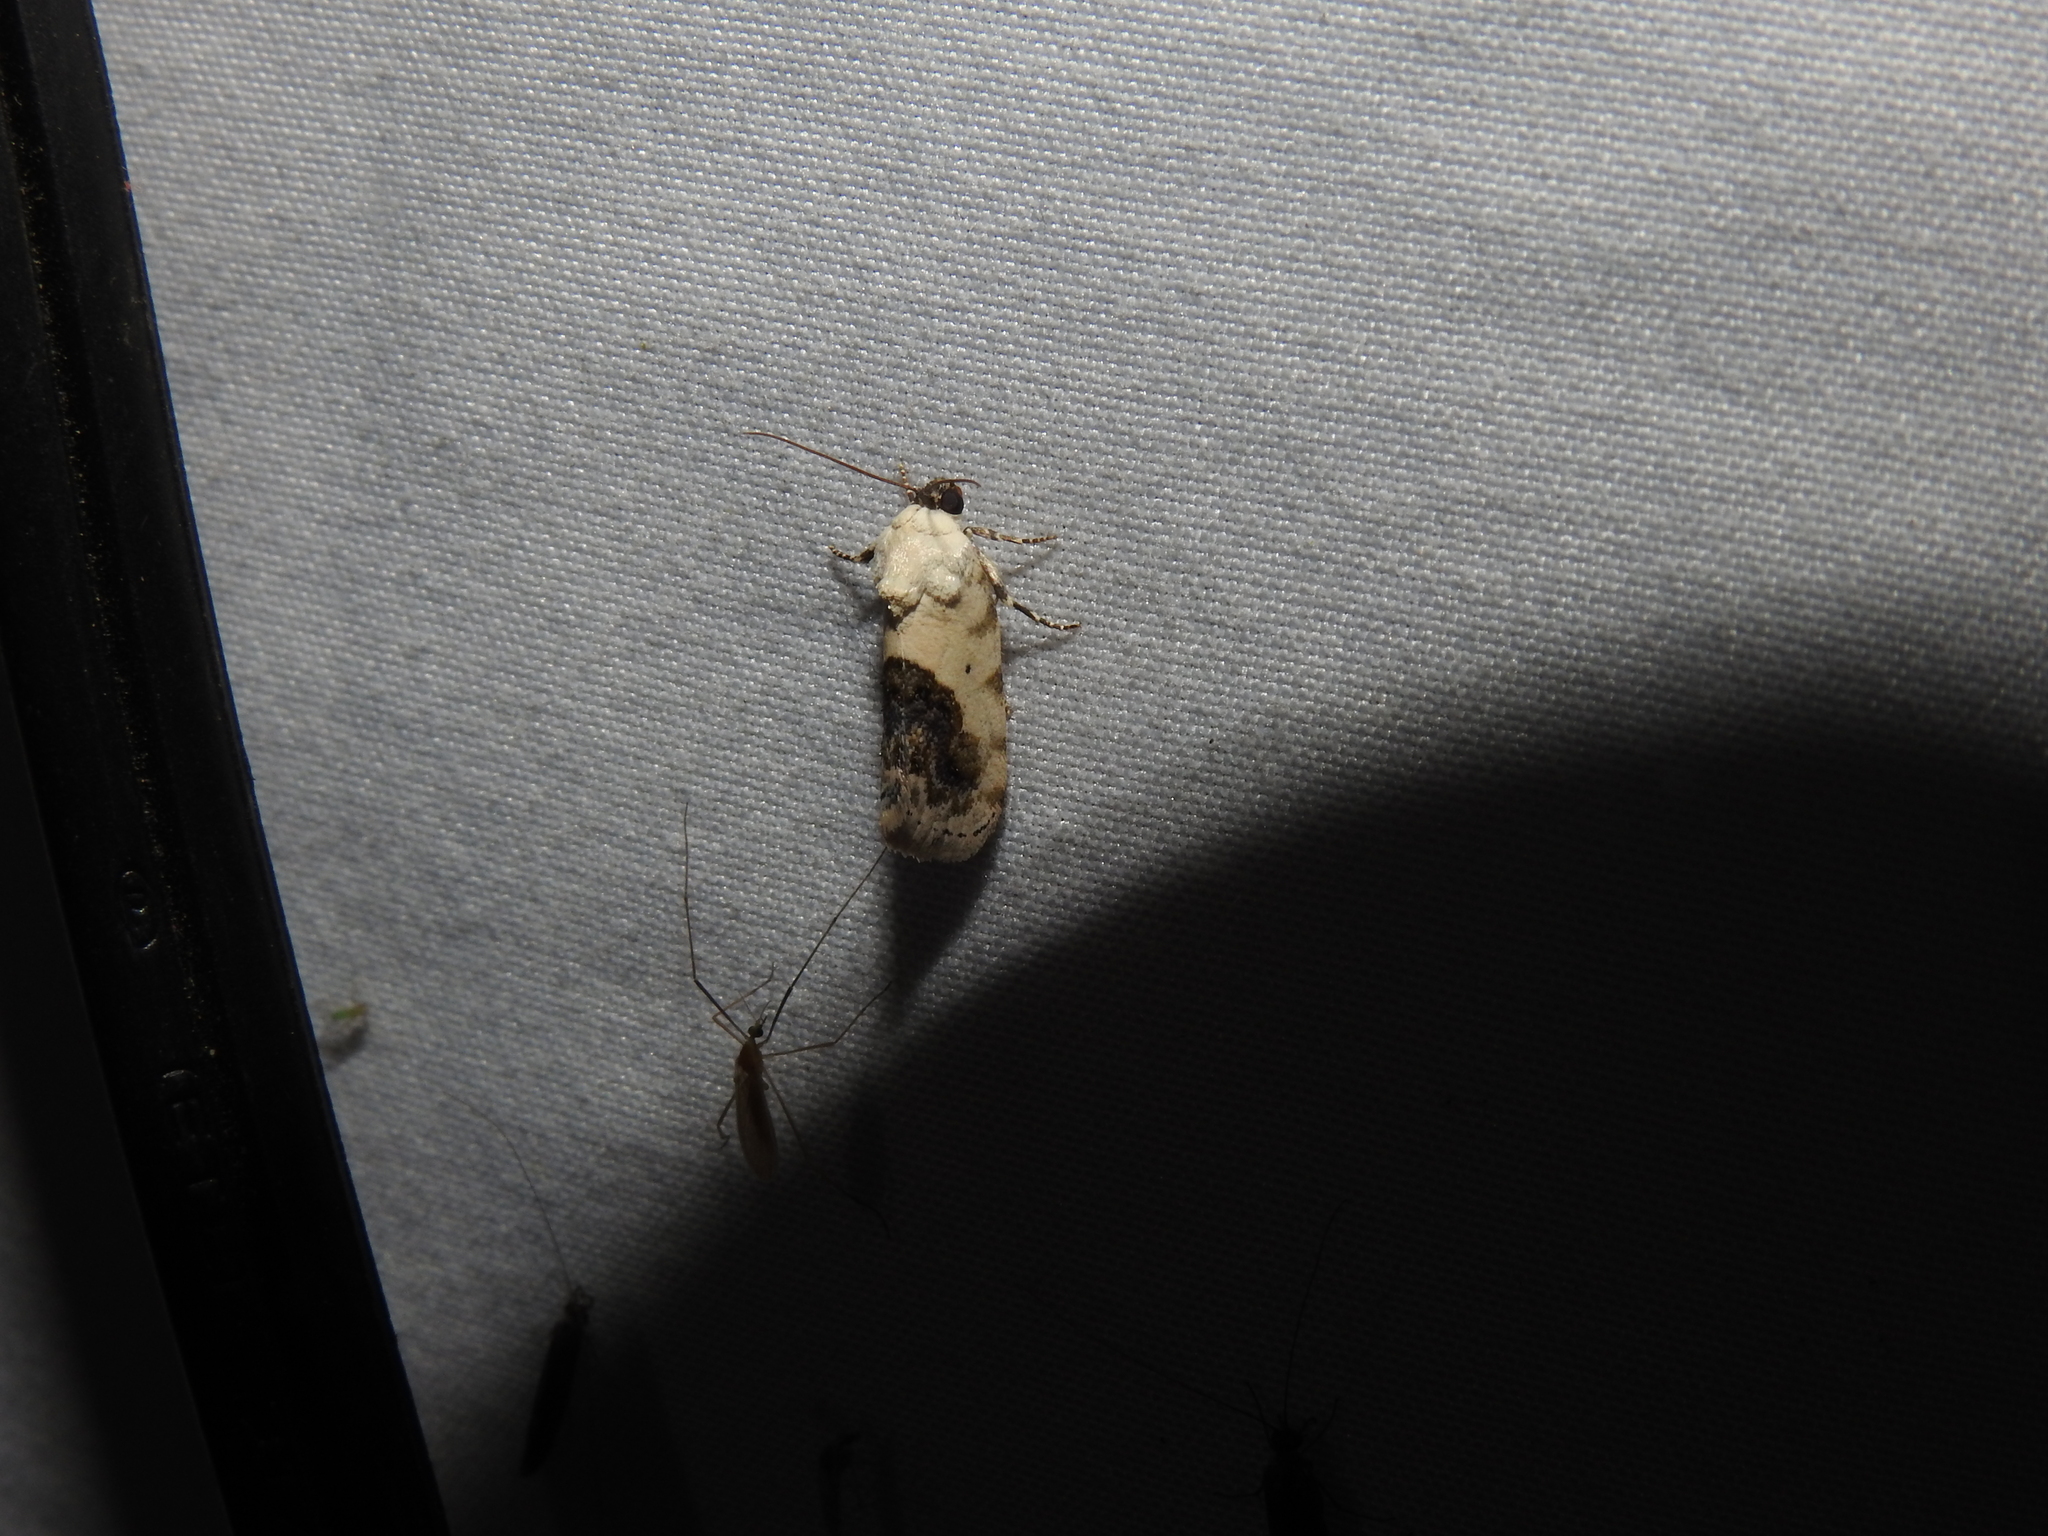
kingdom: Animalia
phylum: Arthropoda
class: Insecta
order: Lepidoptera
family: Noctuidae
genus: Acontia
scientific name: Acontia erastrioides
